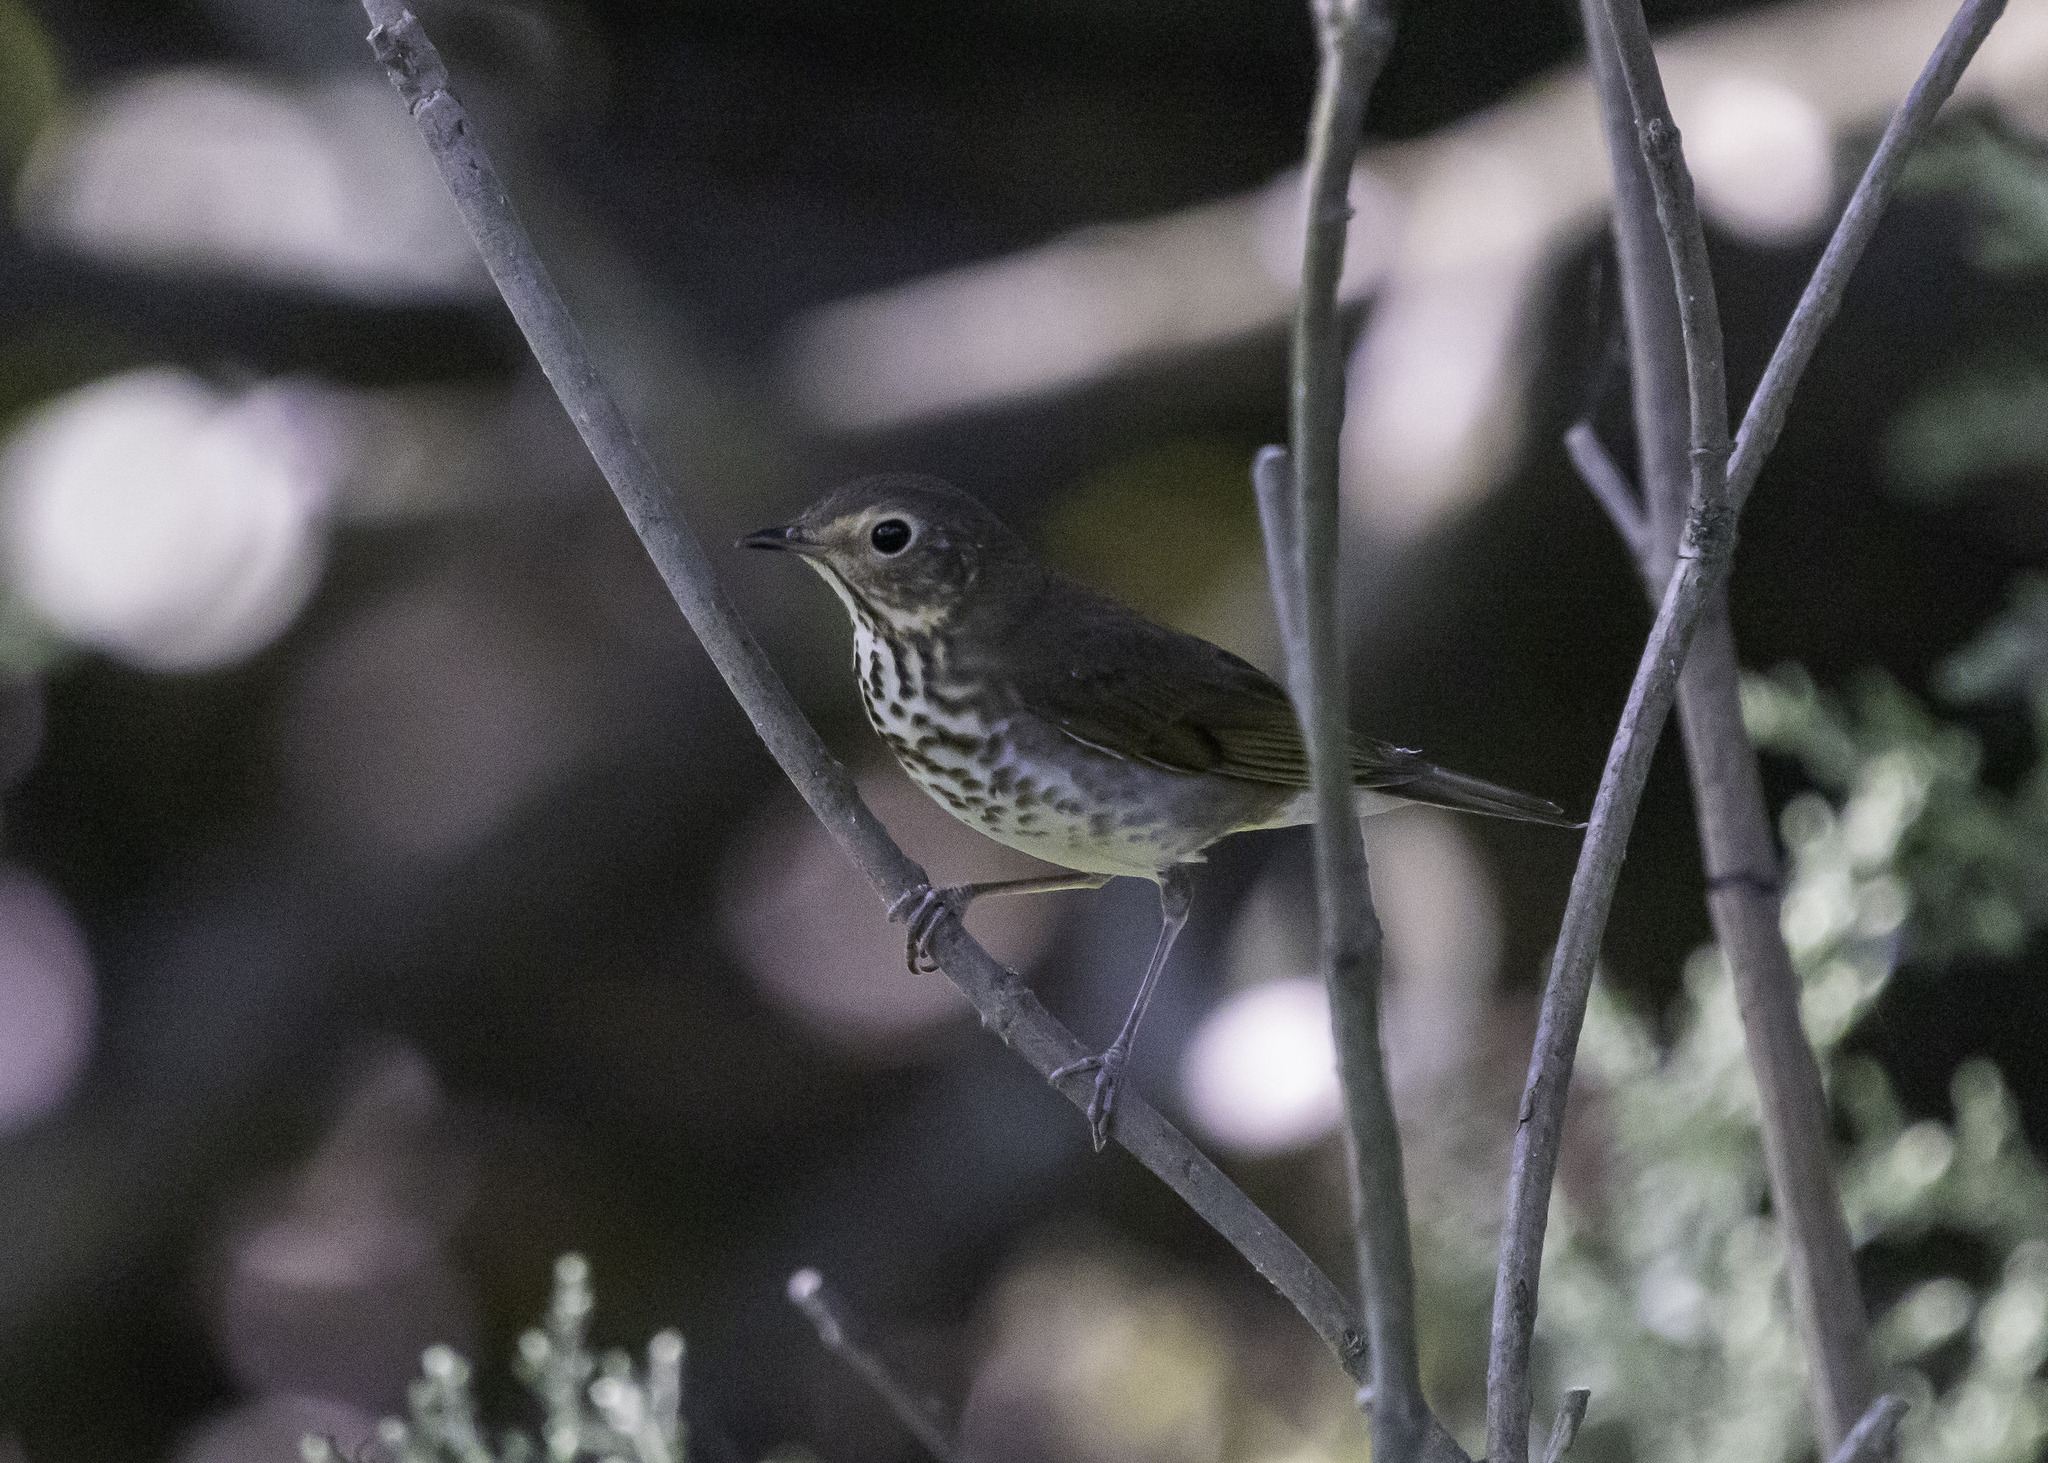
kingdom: Animalia
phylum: Chordata
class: Aves
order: Passeriformes
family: Turdidae
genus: Catharus
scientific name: Catharus ustulatus
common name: Swainson's thrush
